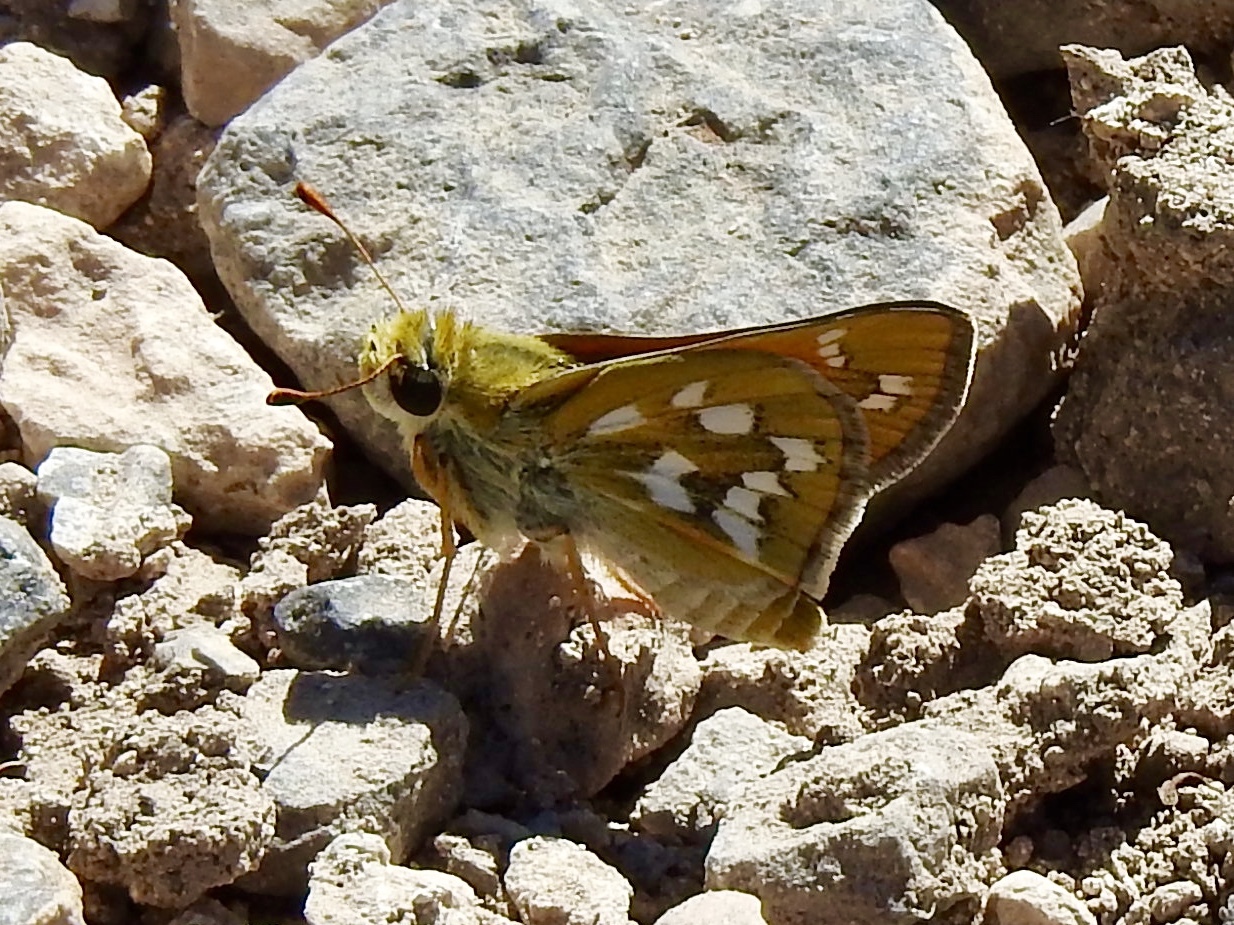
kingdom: Animalia
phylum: Arthropoda
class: Insecta
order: Lepidoptera
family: Hesperiidae
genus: Hesperia
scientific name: Hesperia viridis
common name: Green skipper
